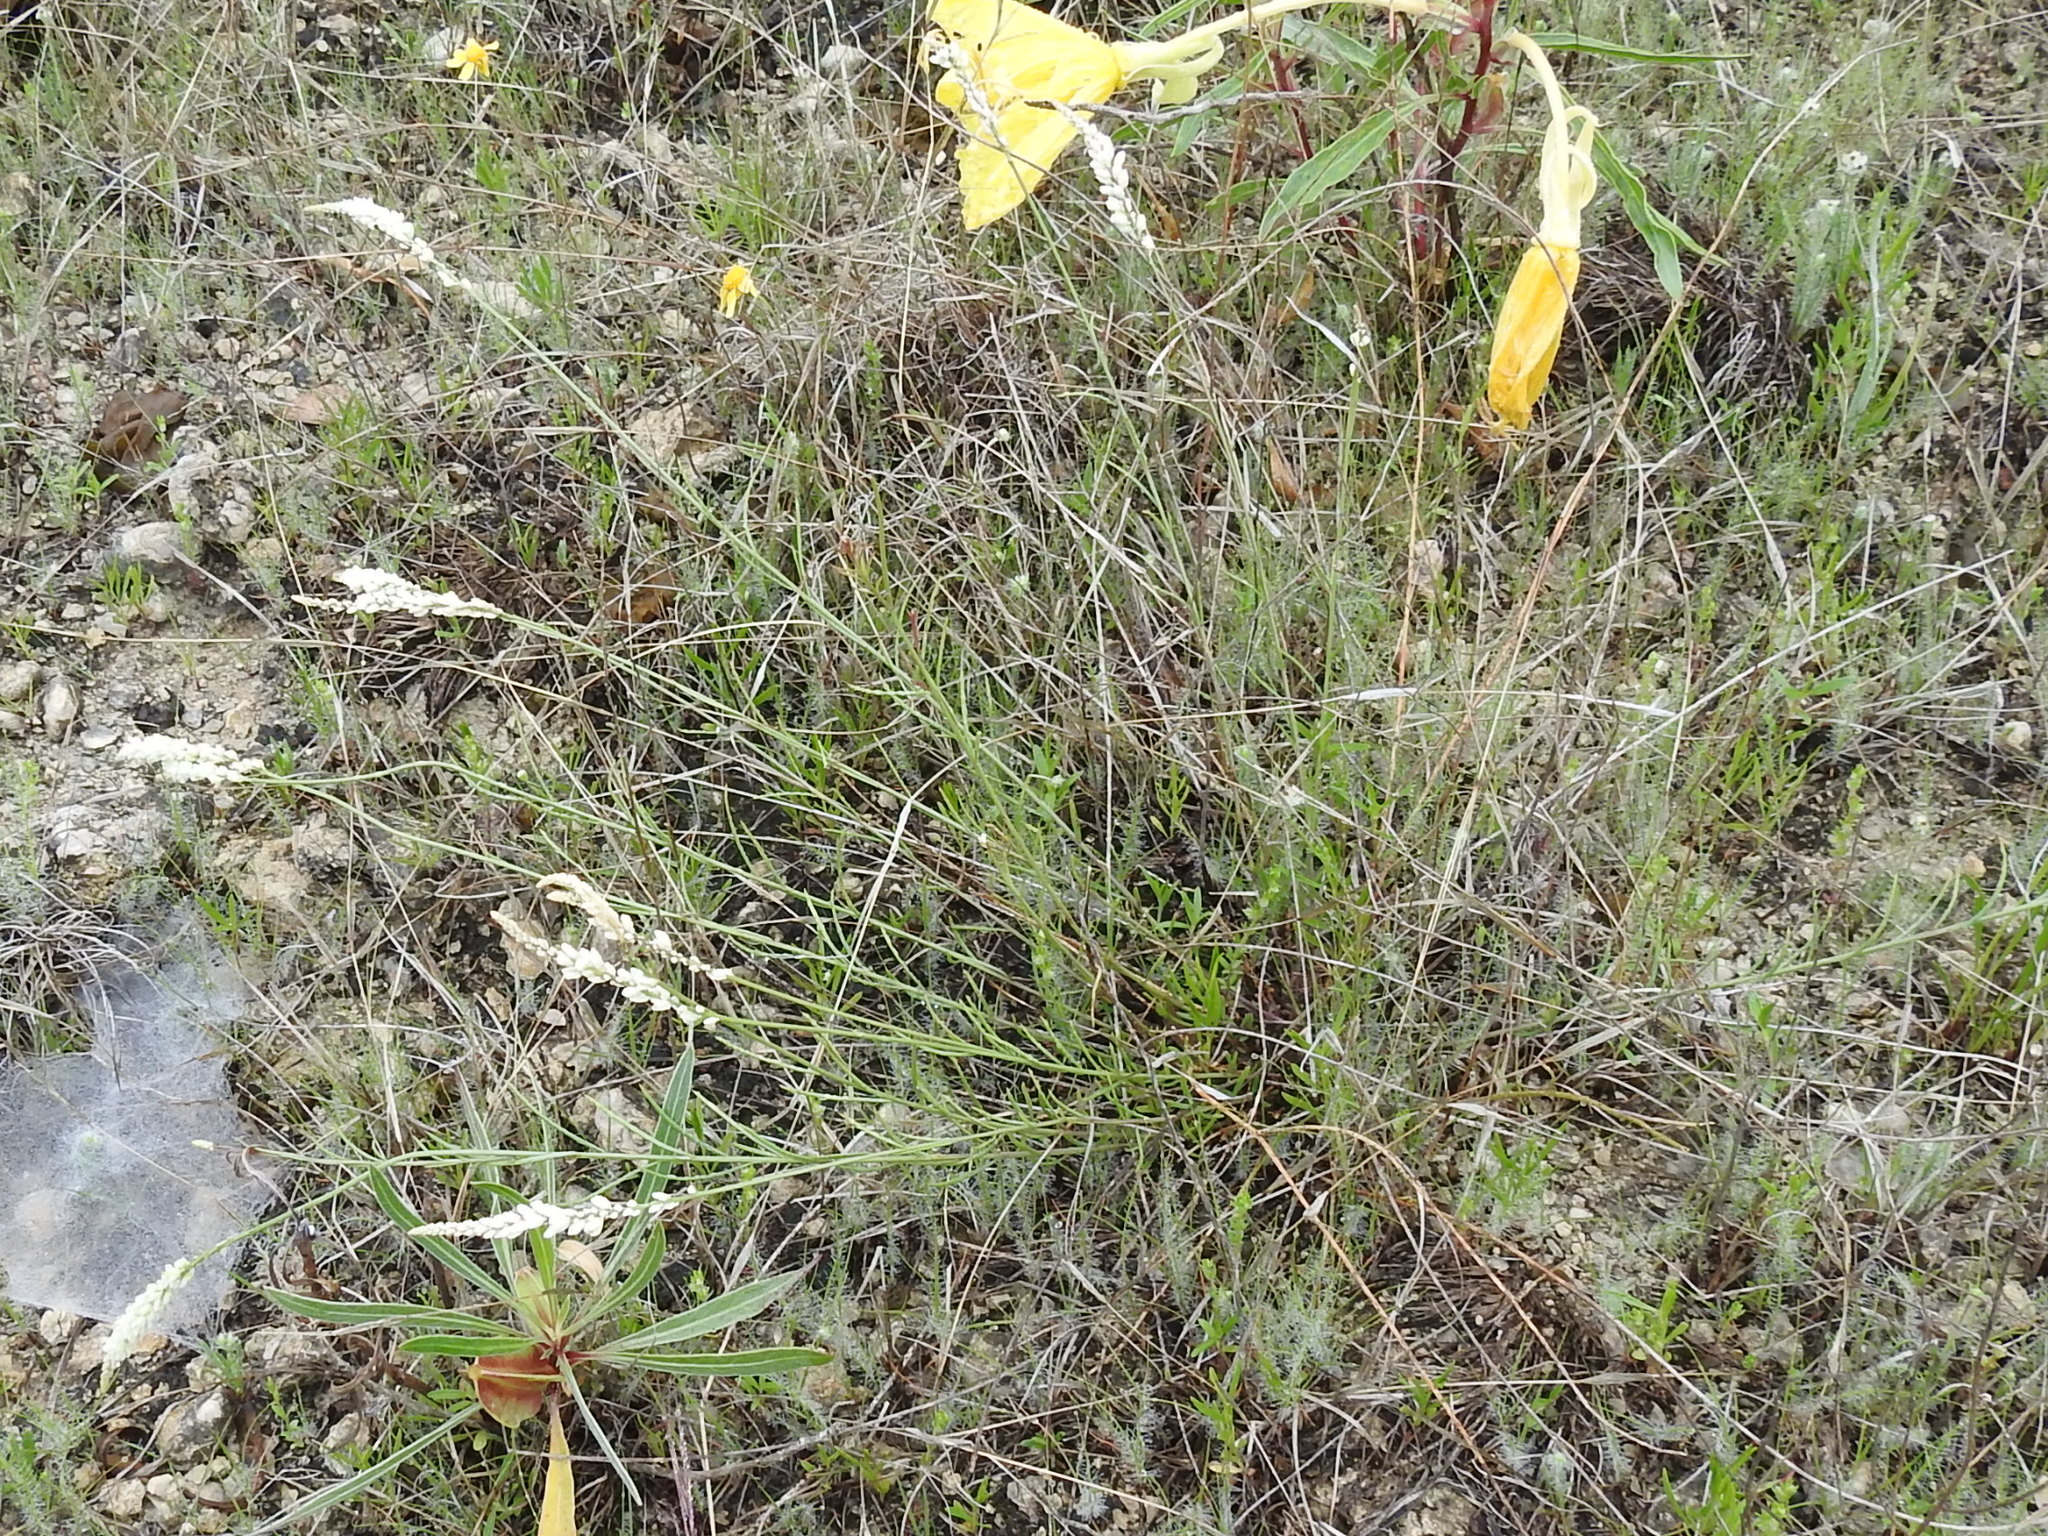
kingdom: Plantae
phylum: Tracheophyta
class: Magnoliopsida
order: Fabales
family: Polygalaceae
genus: Polygala
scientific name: Polygala alba
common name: White milkwort
